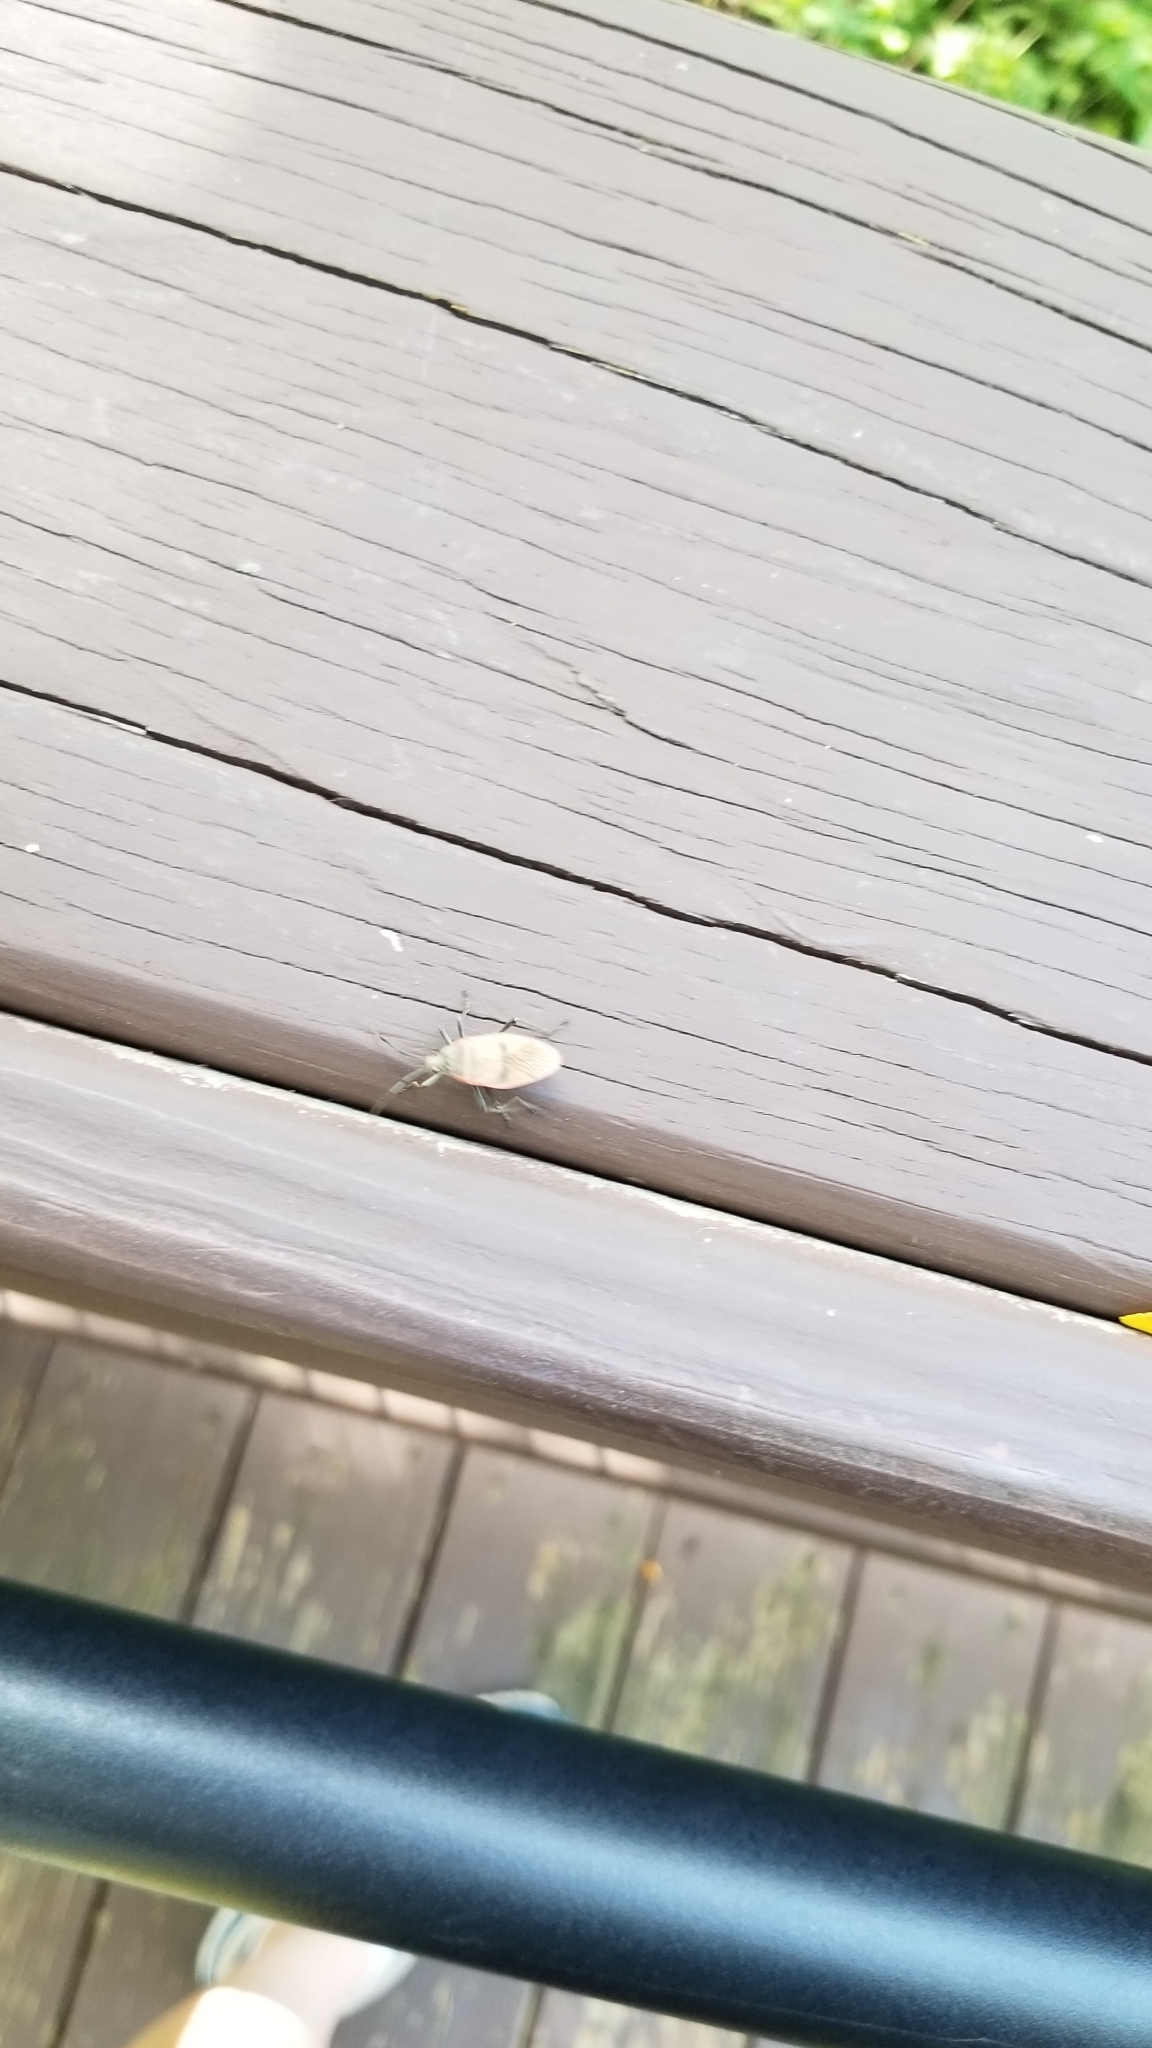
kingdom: Animalia
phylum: Arthropoda
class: Insecta
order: Hemiptera
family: Largidae
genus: Largus
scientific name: Largus maculatus
